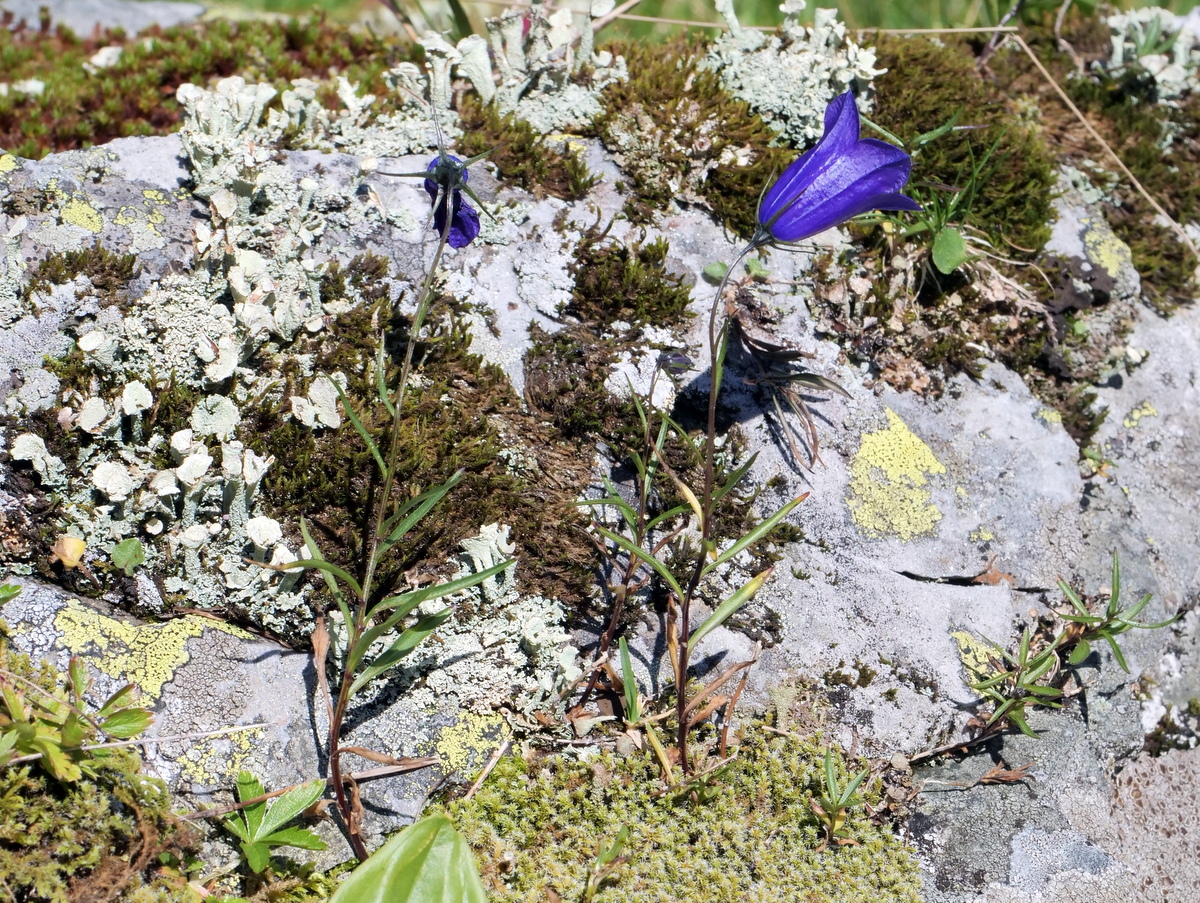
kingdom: Plantae
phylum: Tracheophyta
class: Magnoliopsida
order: Asterales
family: Campanulaceae
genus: Campanula
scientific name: Campanula scheuchzeri
